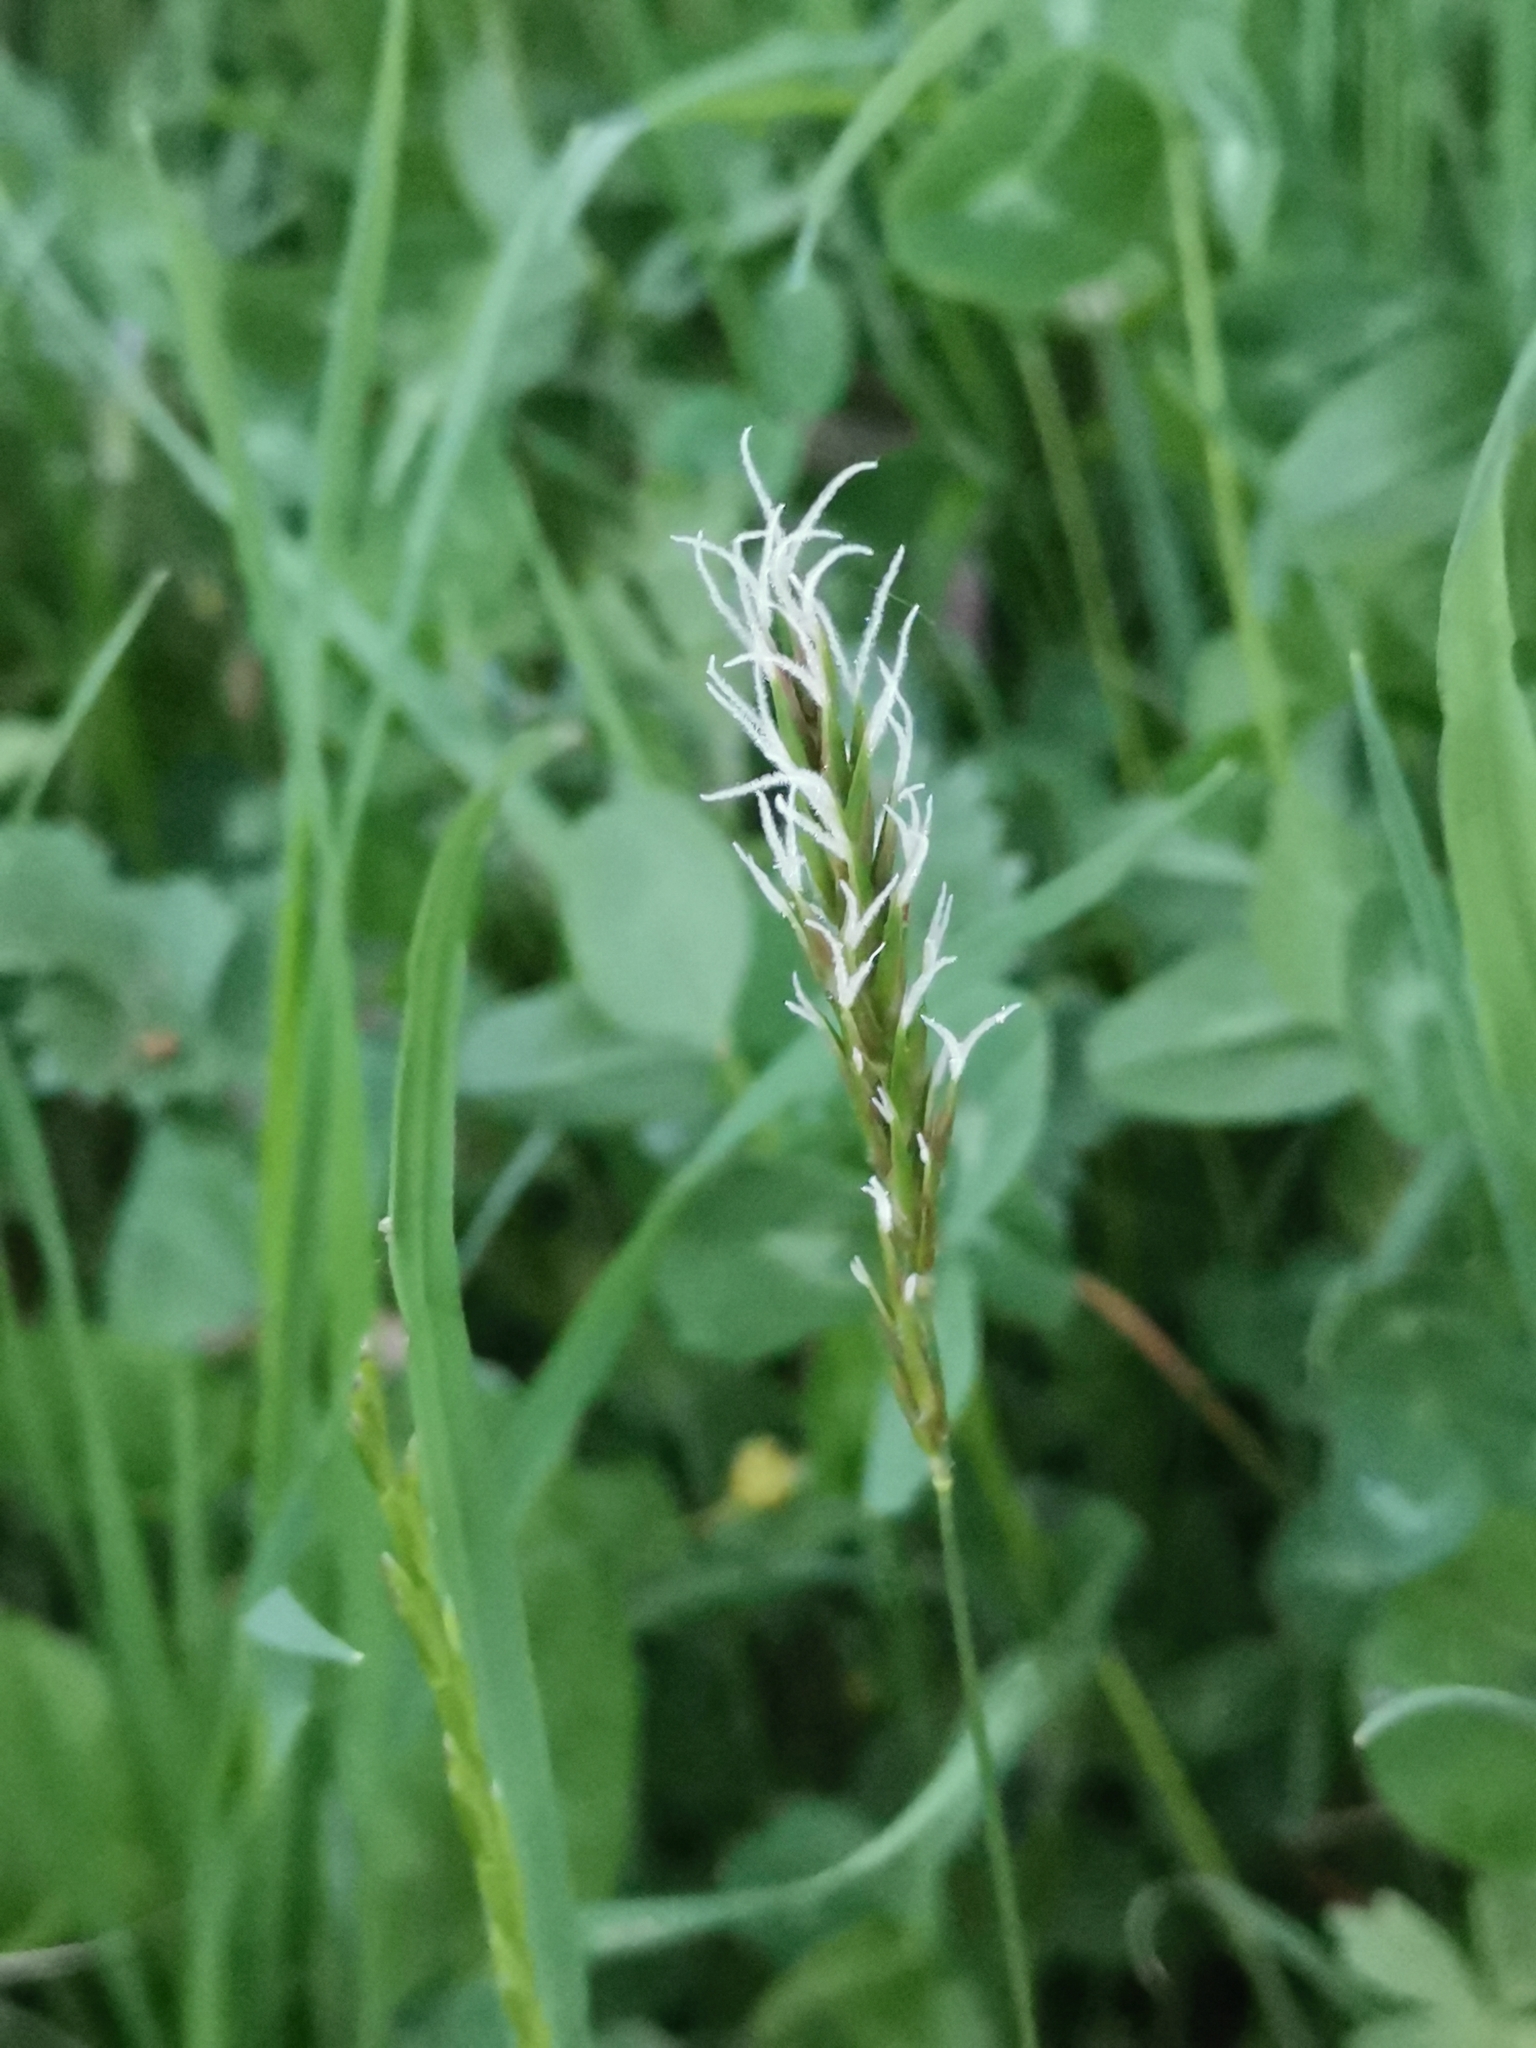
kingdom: Plantae
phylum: Tracheophyta
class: Liliopsida
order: Poales
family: Poaceae
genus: Anthoxanthum
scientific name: Anthoxanthum odoratum
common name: Sweet vernalgrass
